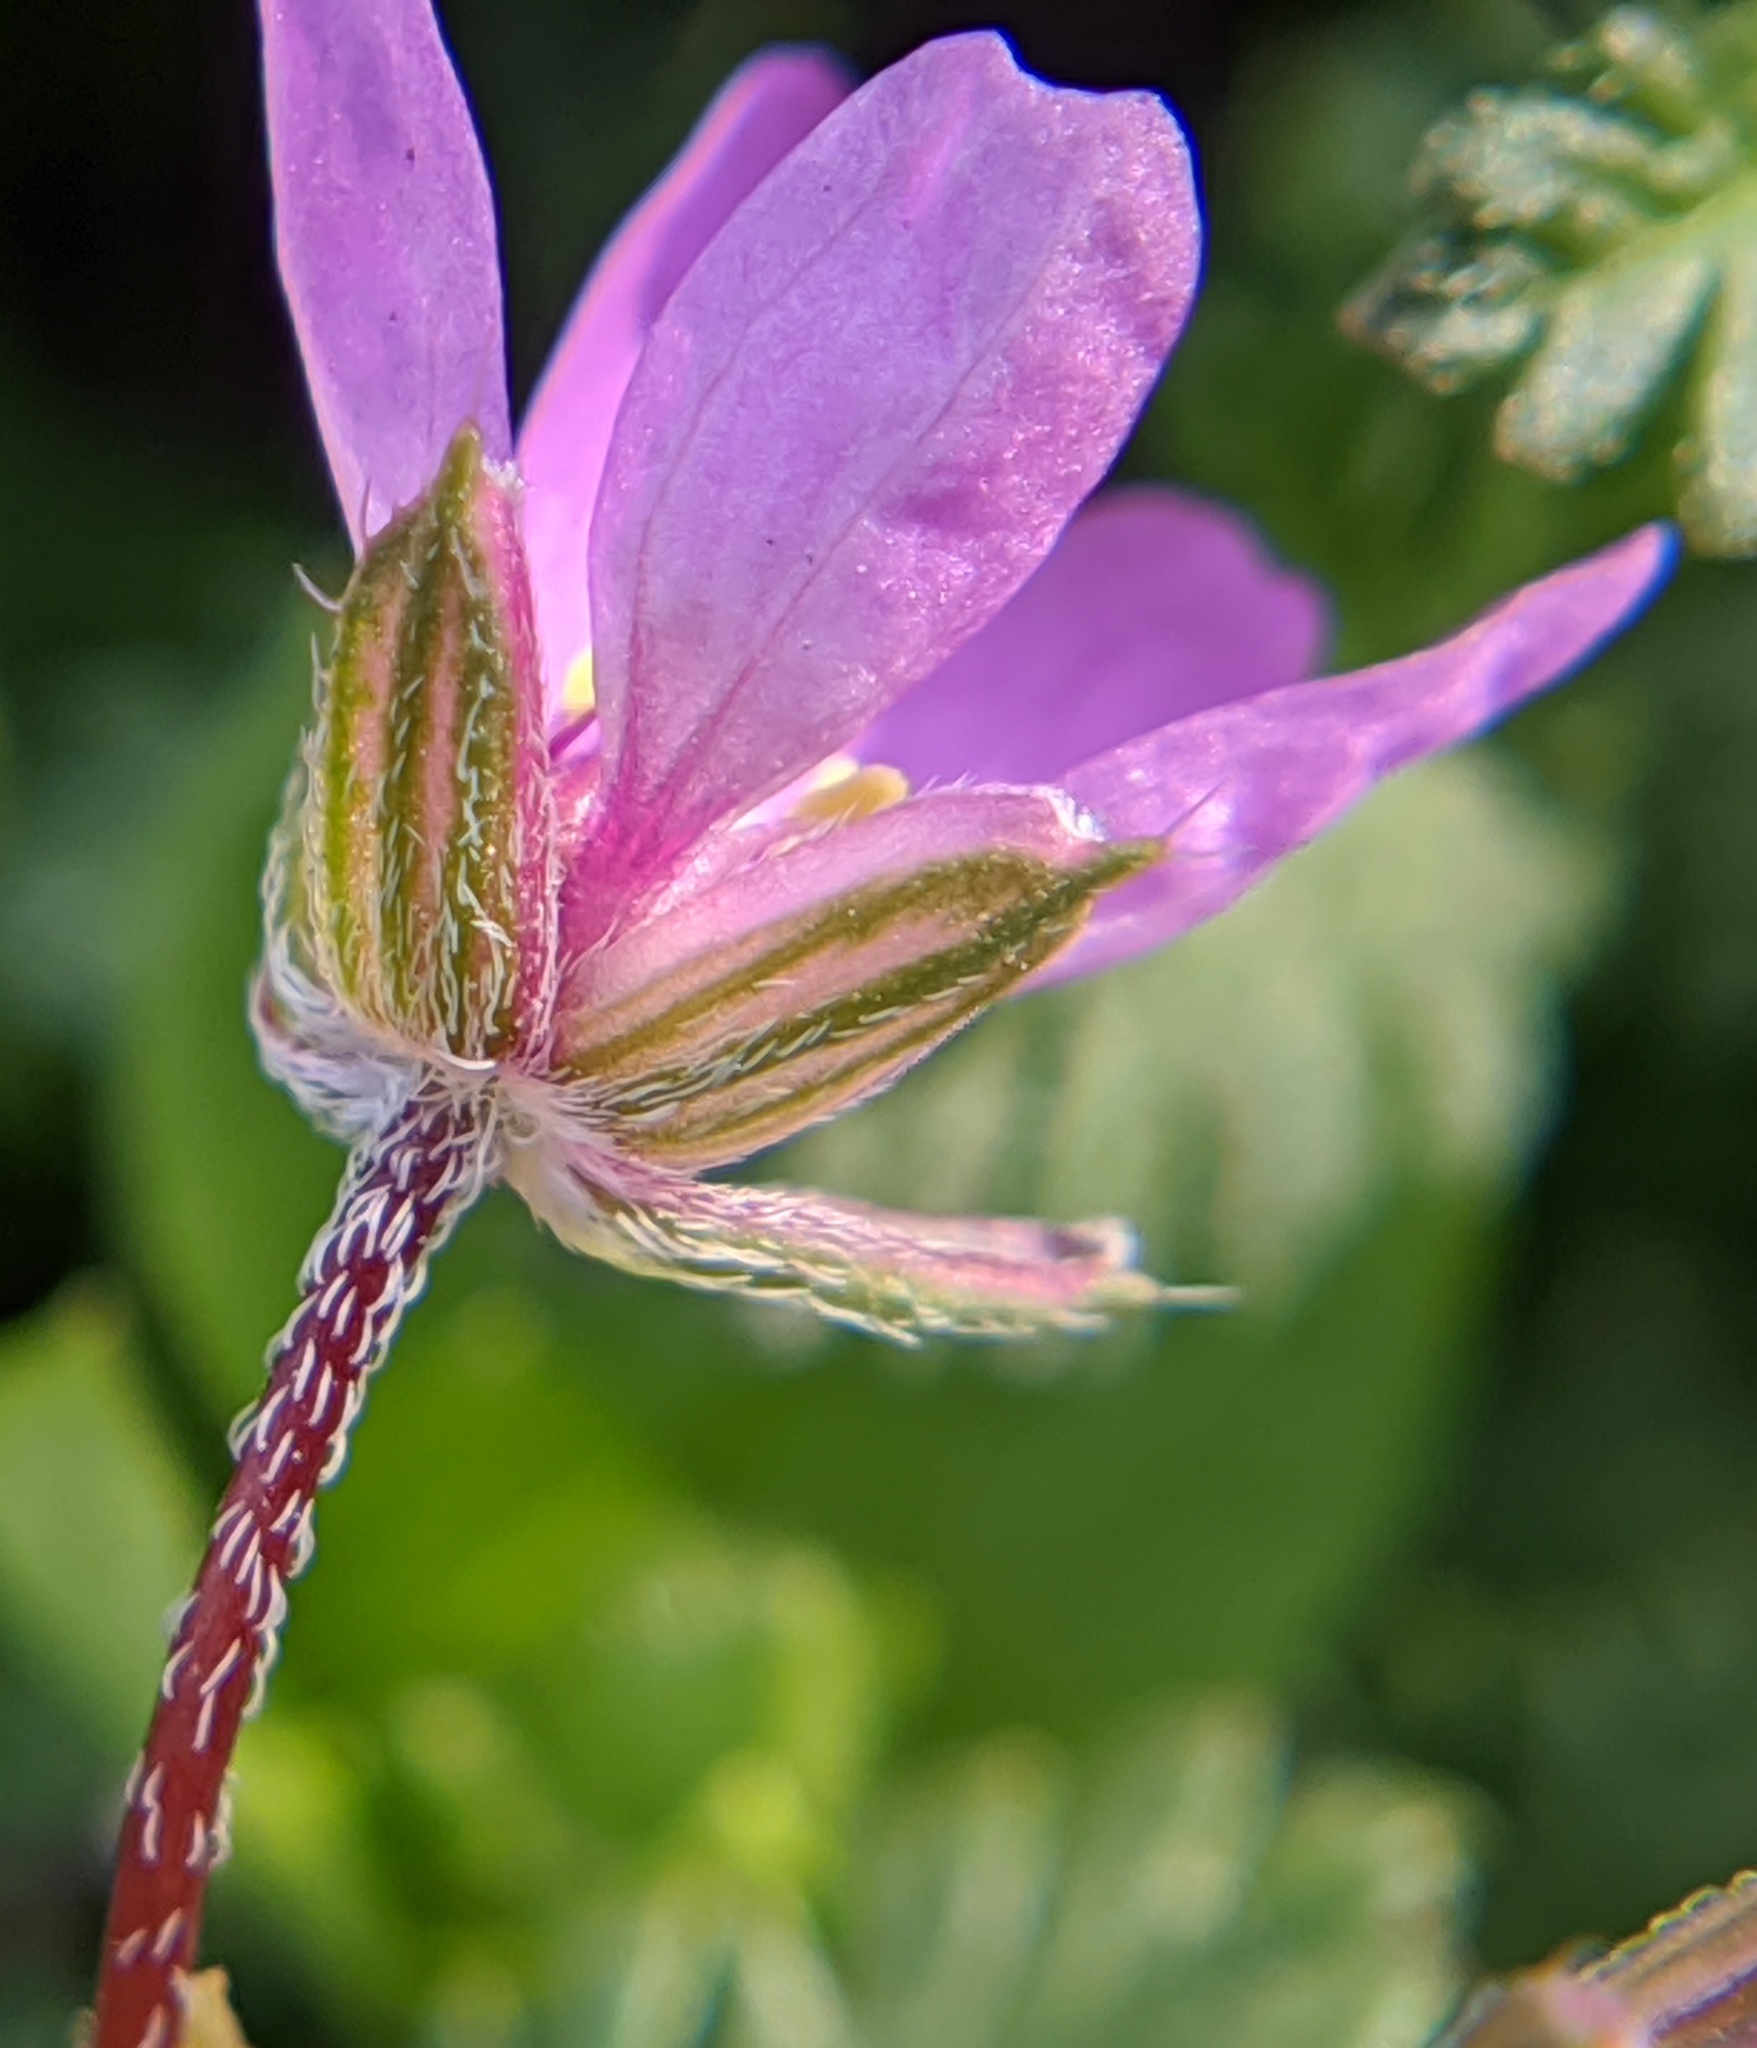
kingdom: Plantae
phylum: Tracheophyta
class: Magnoliopsida
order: Geraniales
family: Geraniaceae
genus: Erodium
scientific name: Erodium cicutarium
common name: Common stork's-bill
